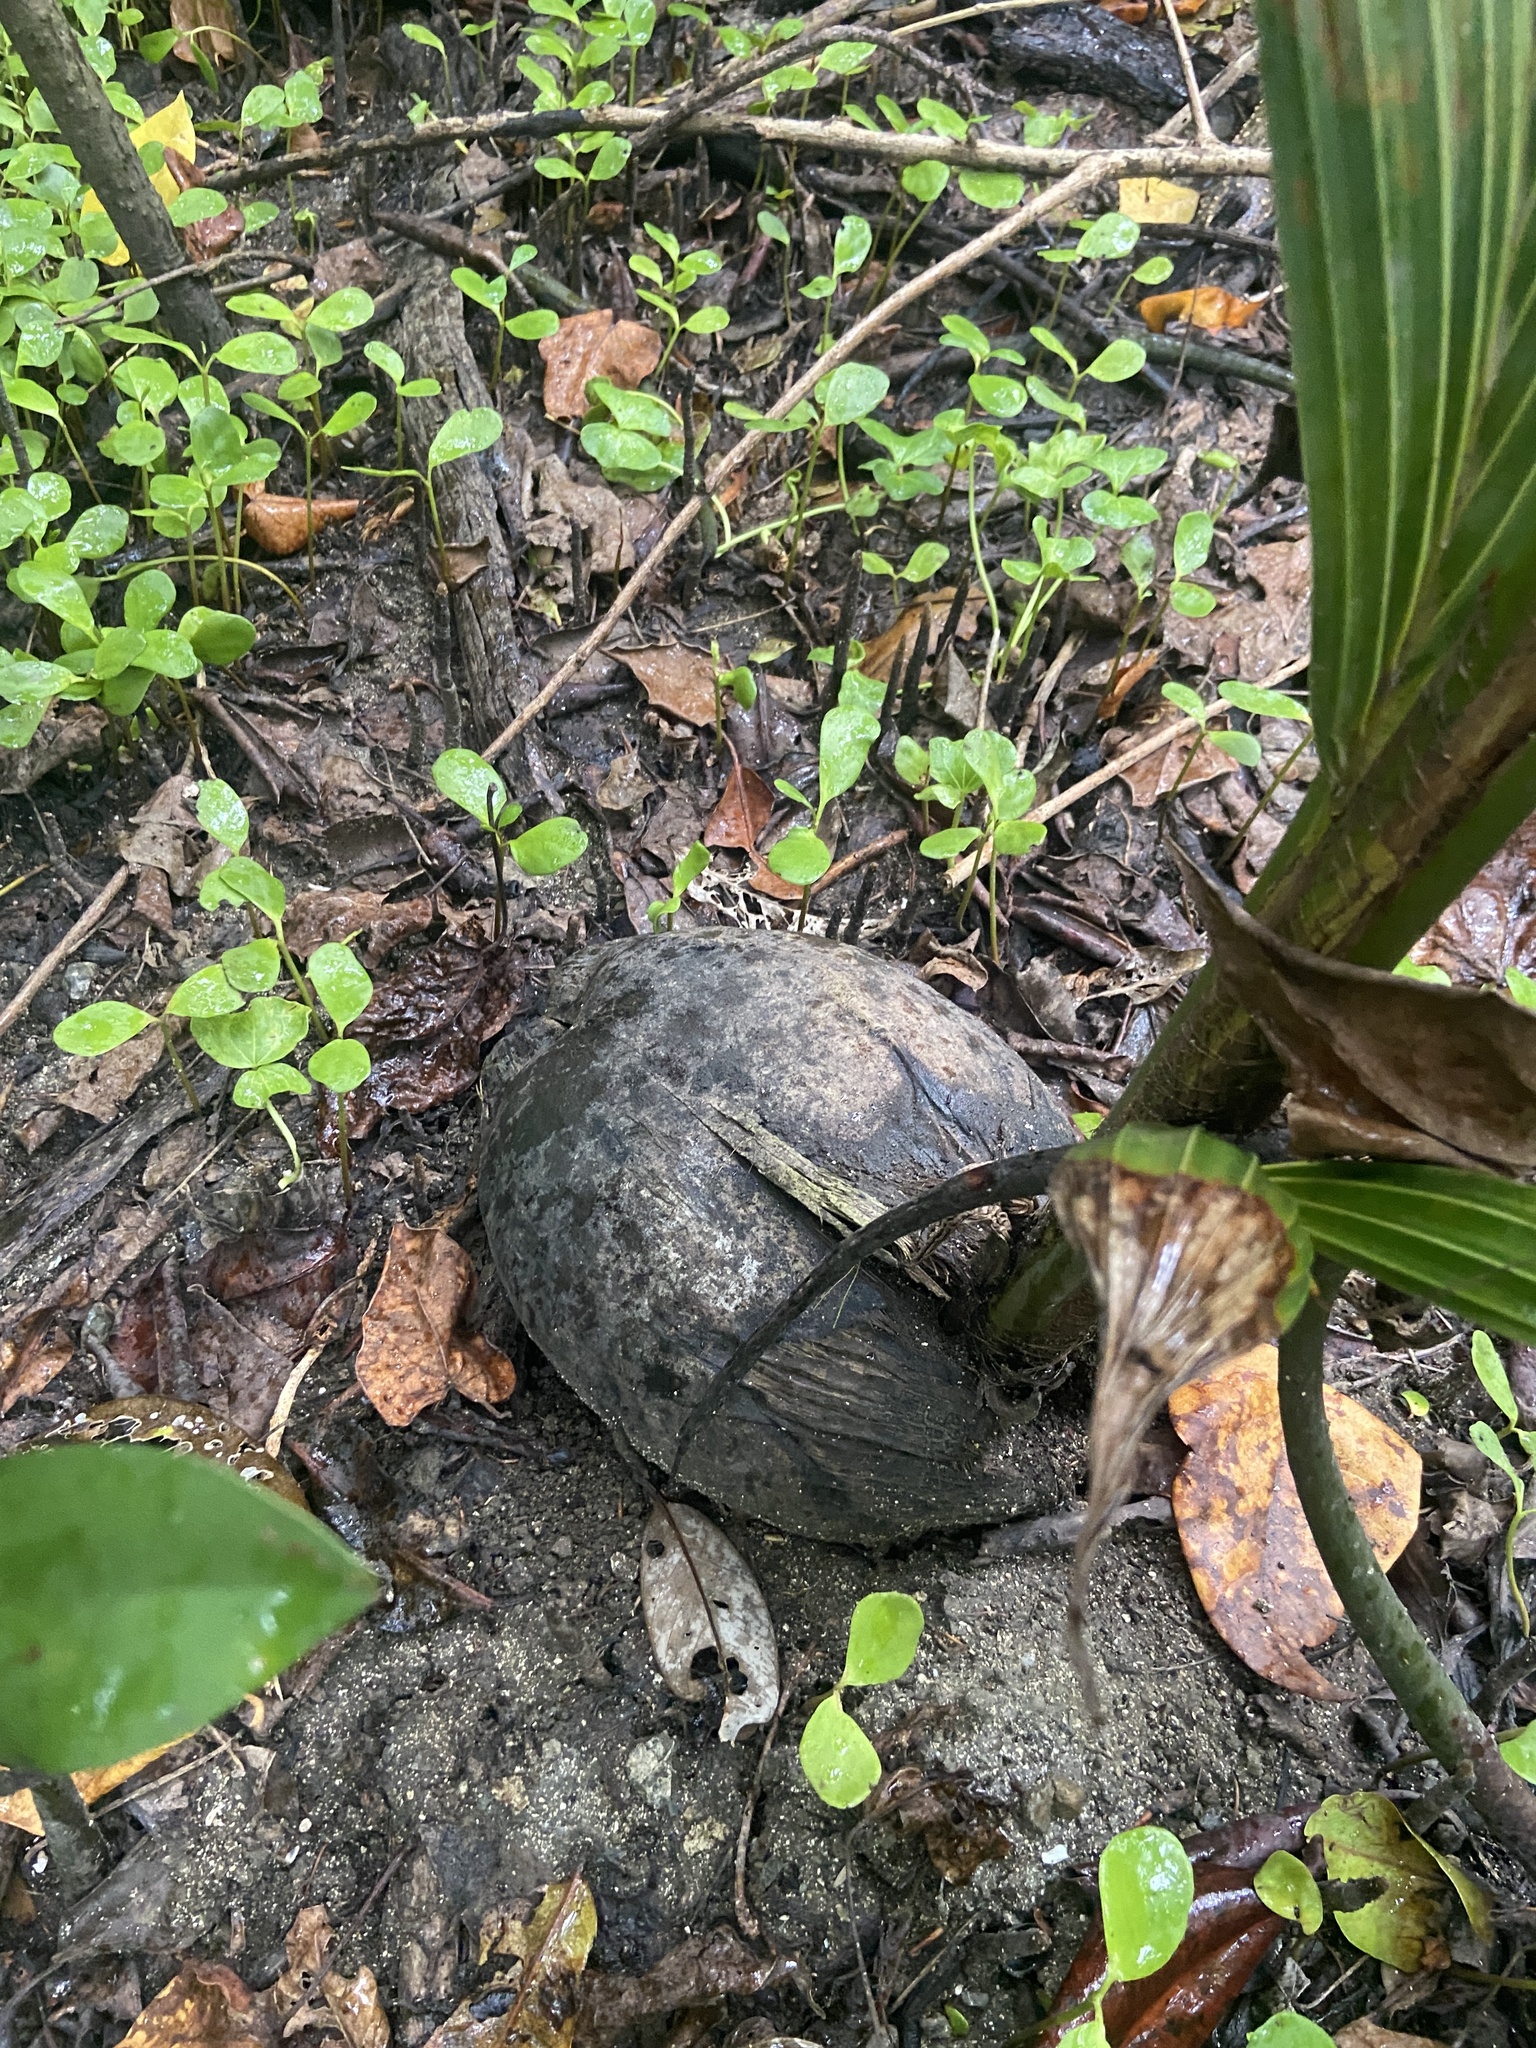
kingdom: Plantae
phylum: Tracheophyta
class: Liliopsida
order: Arecales
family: Arecaceae
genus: Cocos
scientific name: Cocos nucifera
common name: Coconut palm
